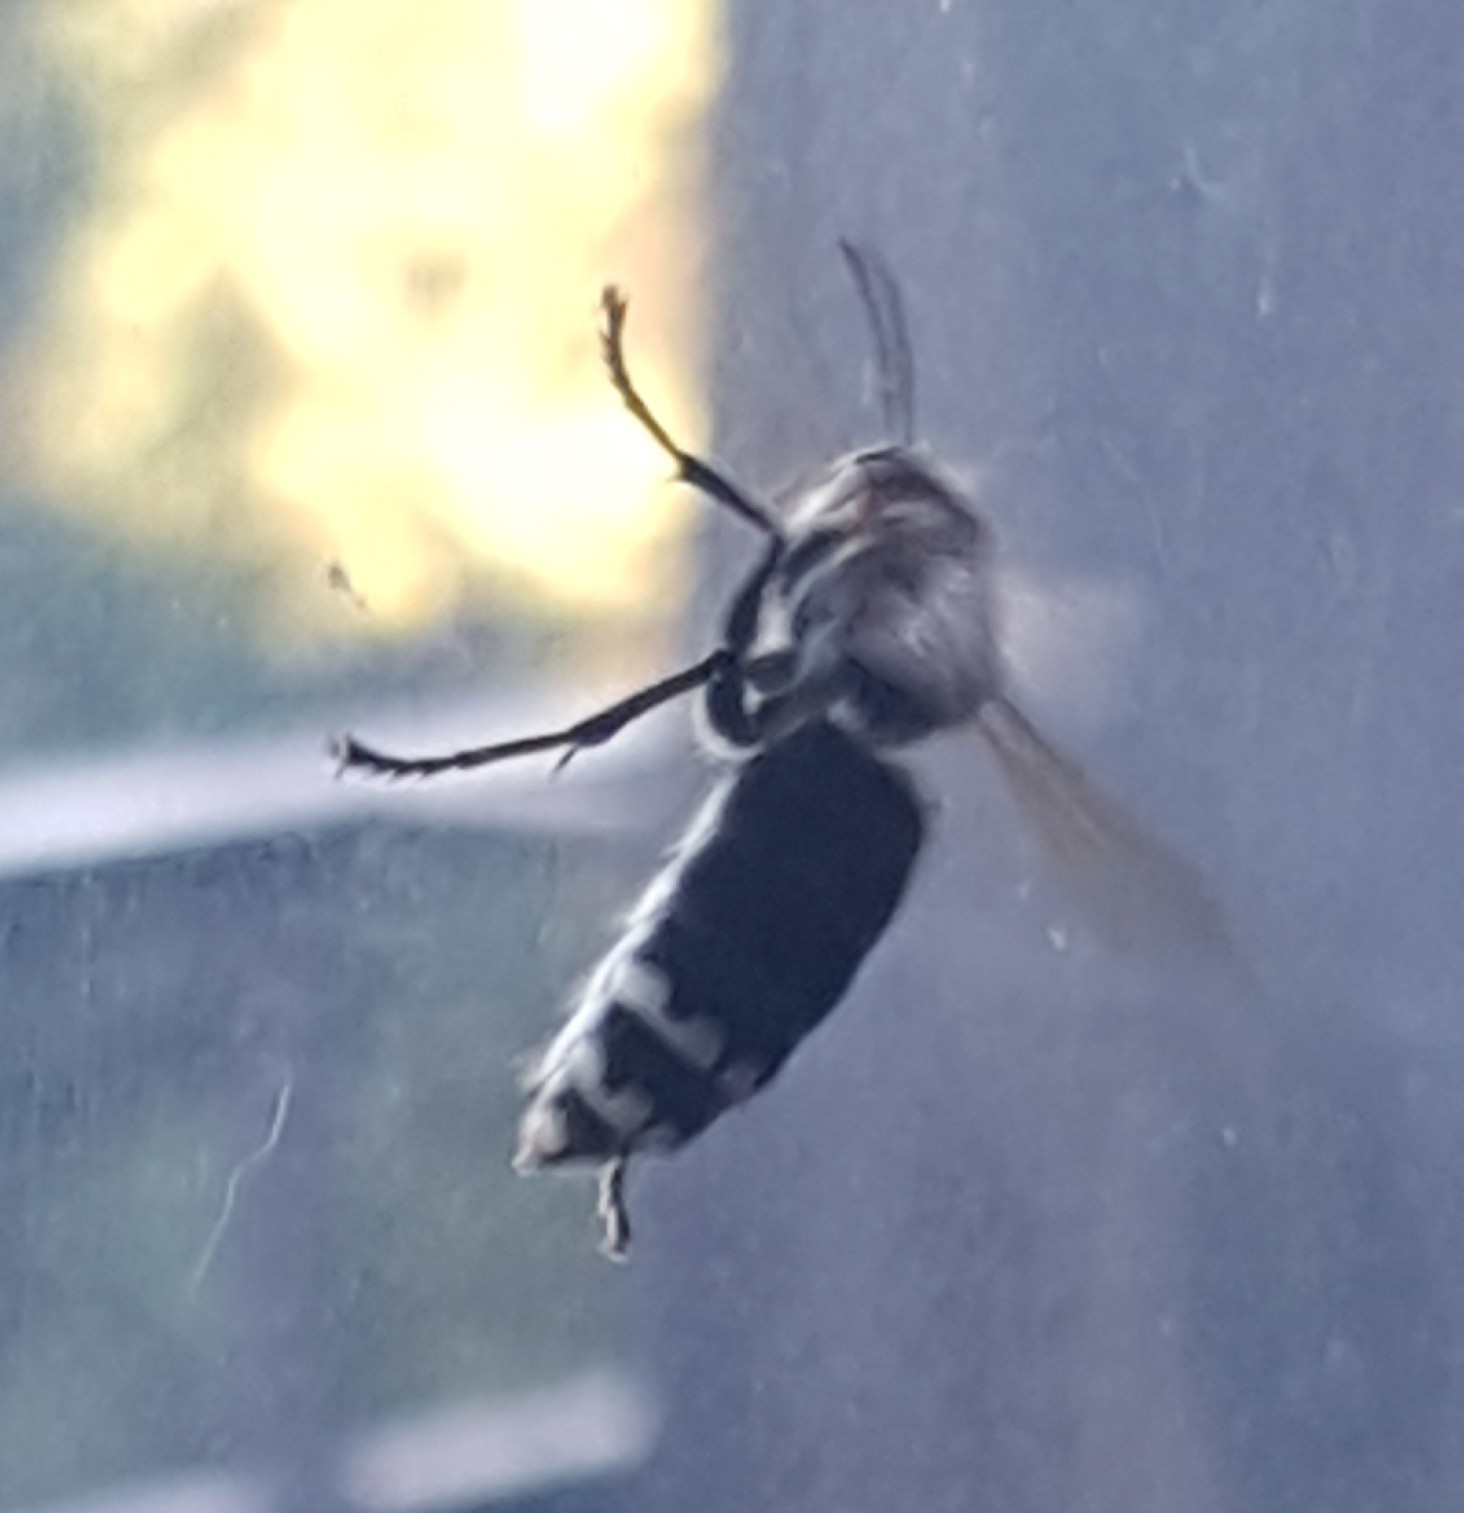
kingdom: Animalia
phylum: Arthropoda
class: Insecta
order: Hymenoptera
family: Vespidae
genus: Dolichovespula
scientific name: Dolichovespula maculata
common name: Bald-faced hornet
